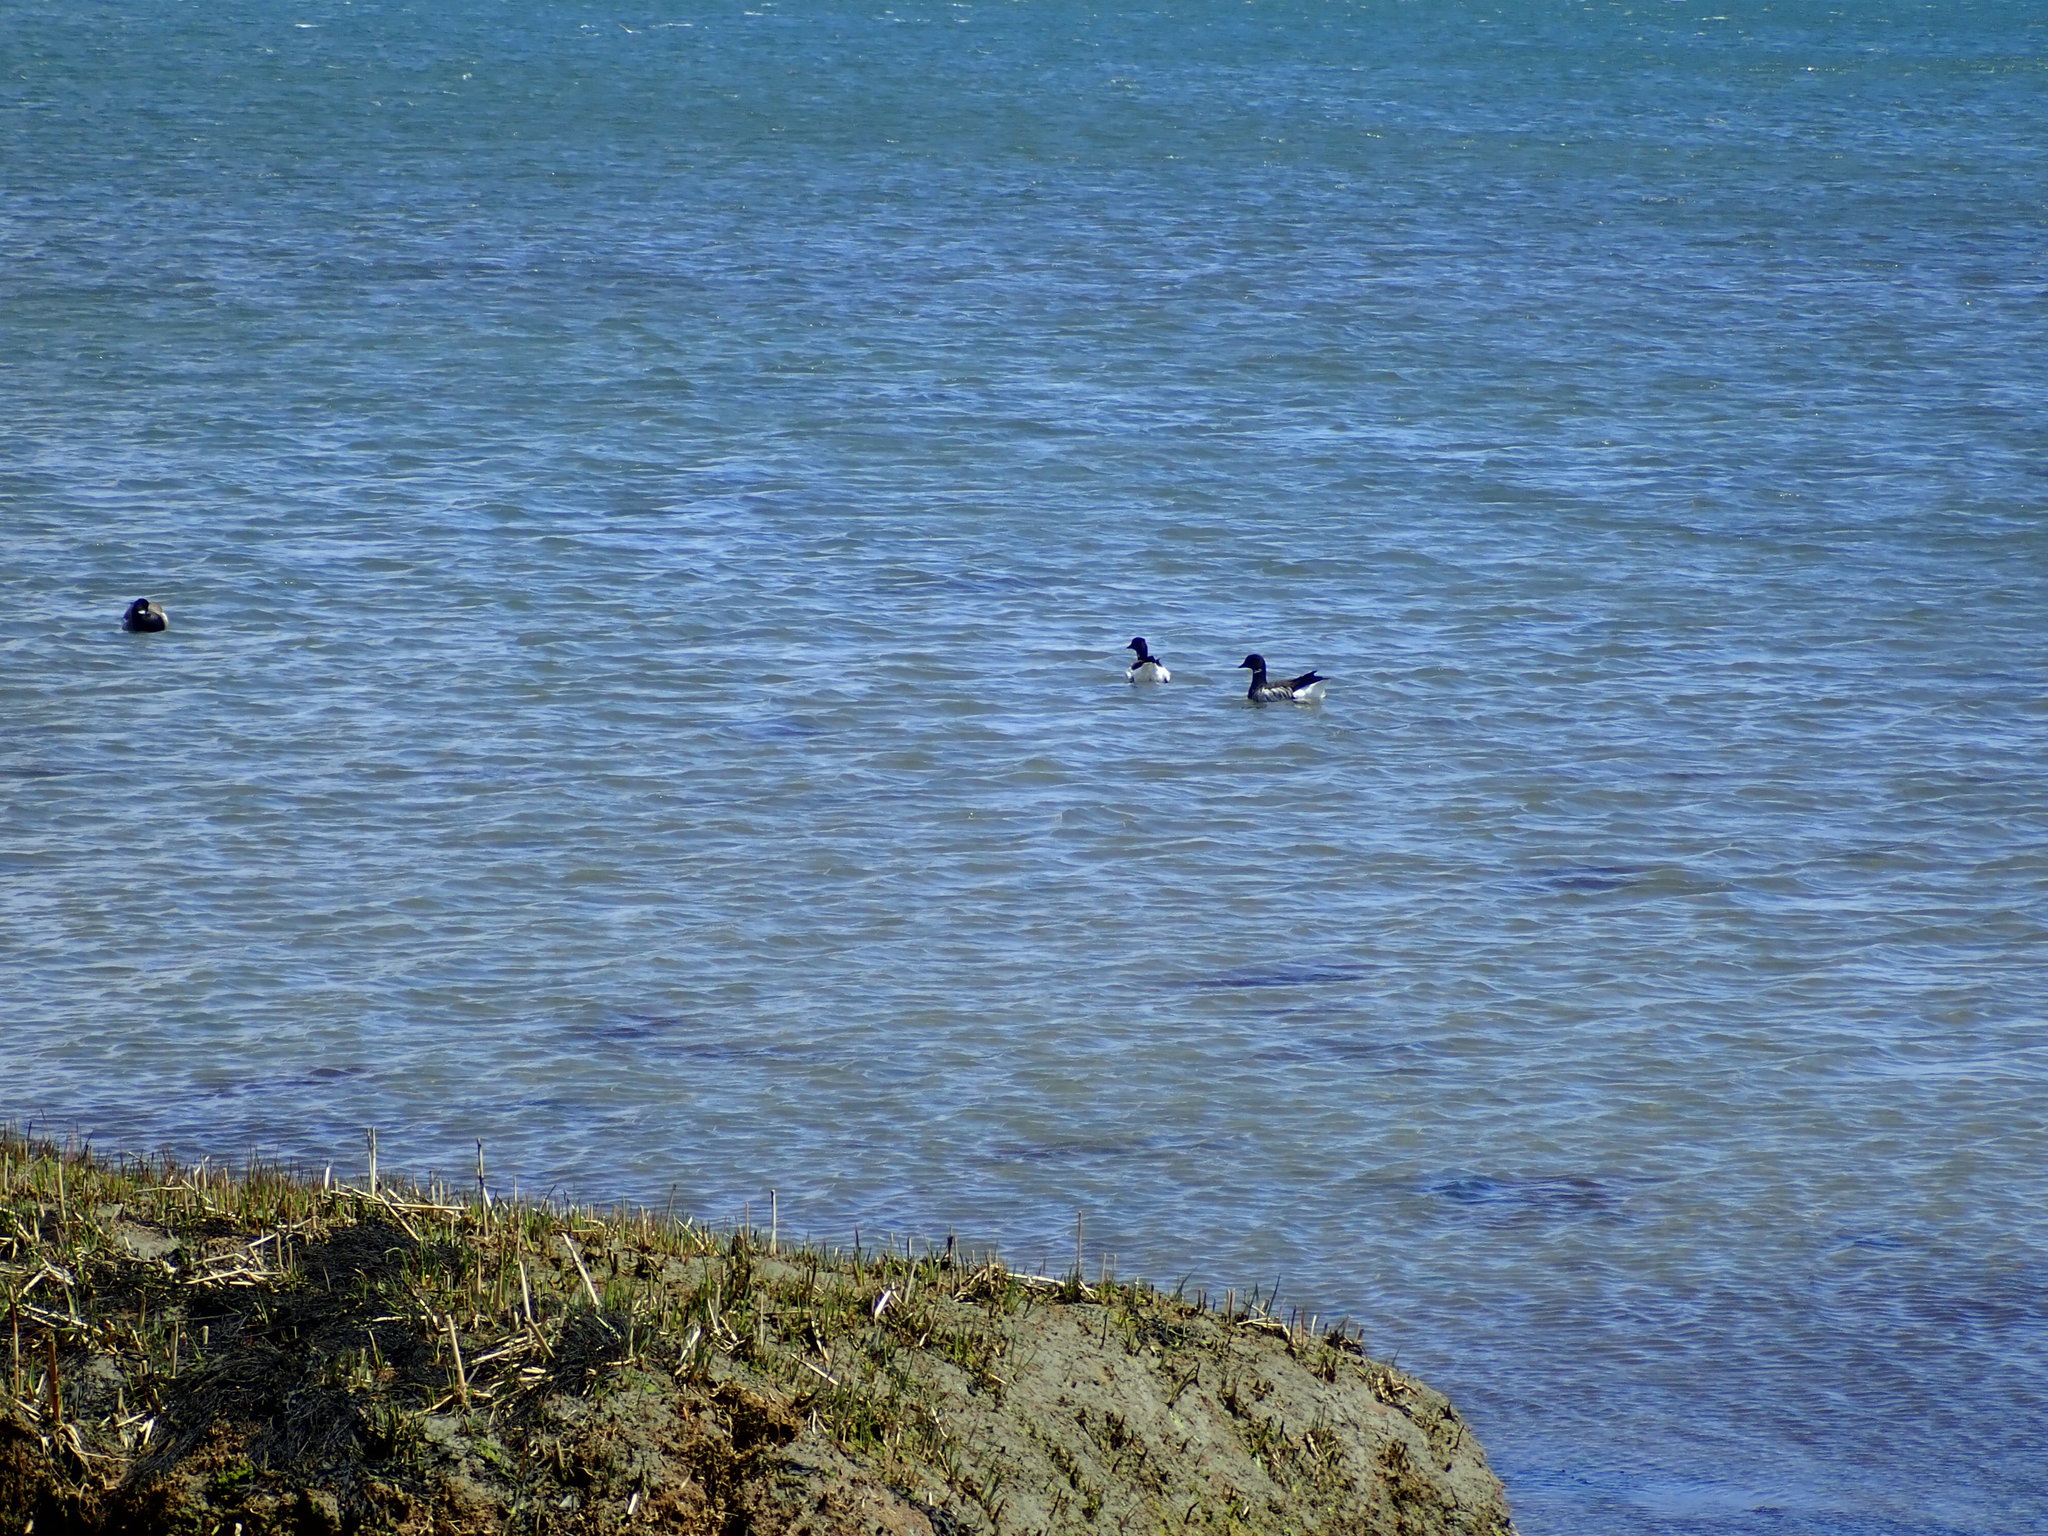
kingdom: Animalia
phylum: Chordata
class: Aves
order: Anseriformes
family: Anatidae
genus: Branta
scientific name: Branta bernicla
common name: Brant goose
